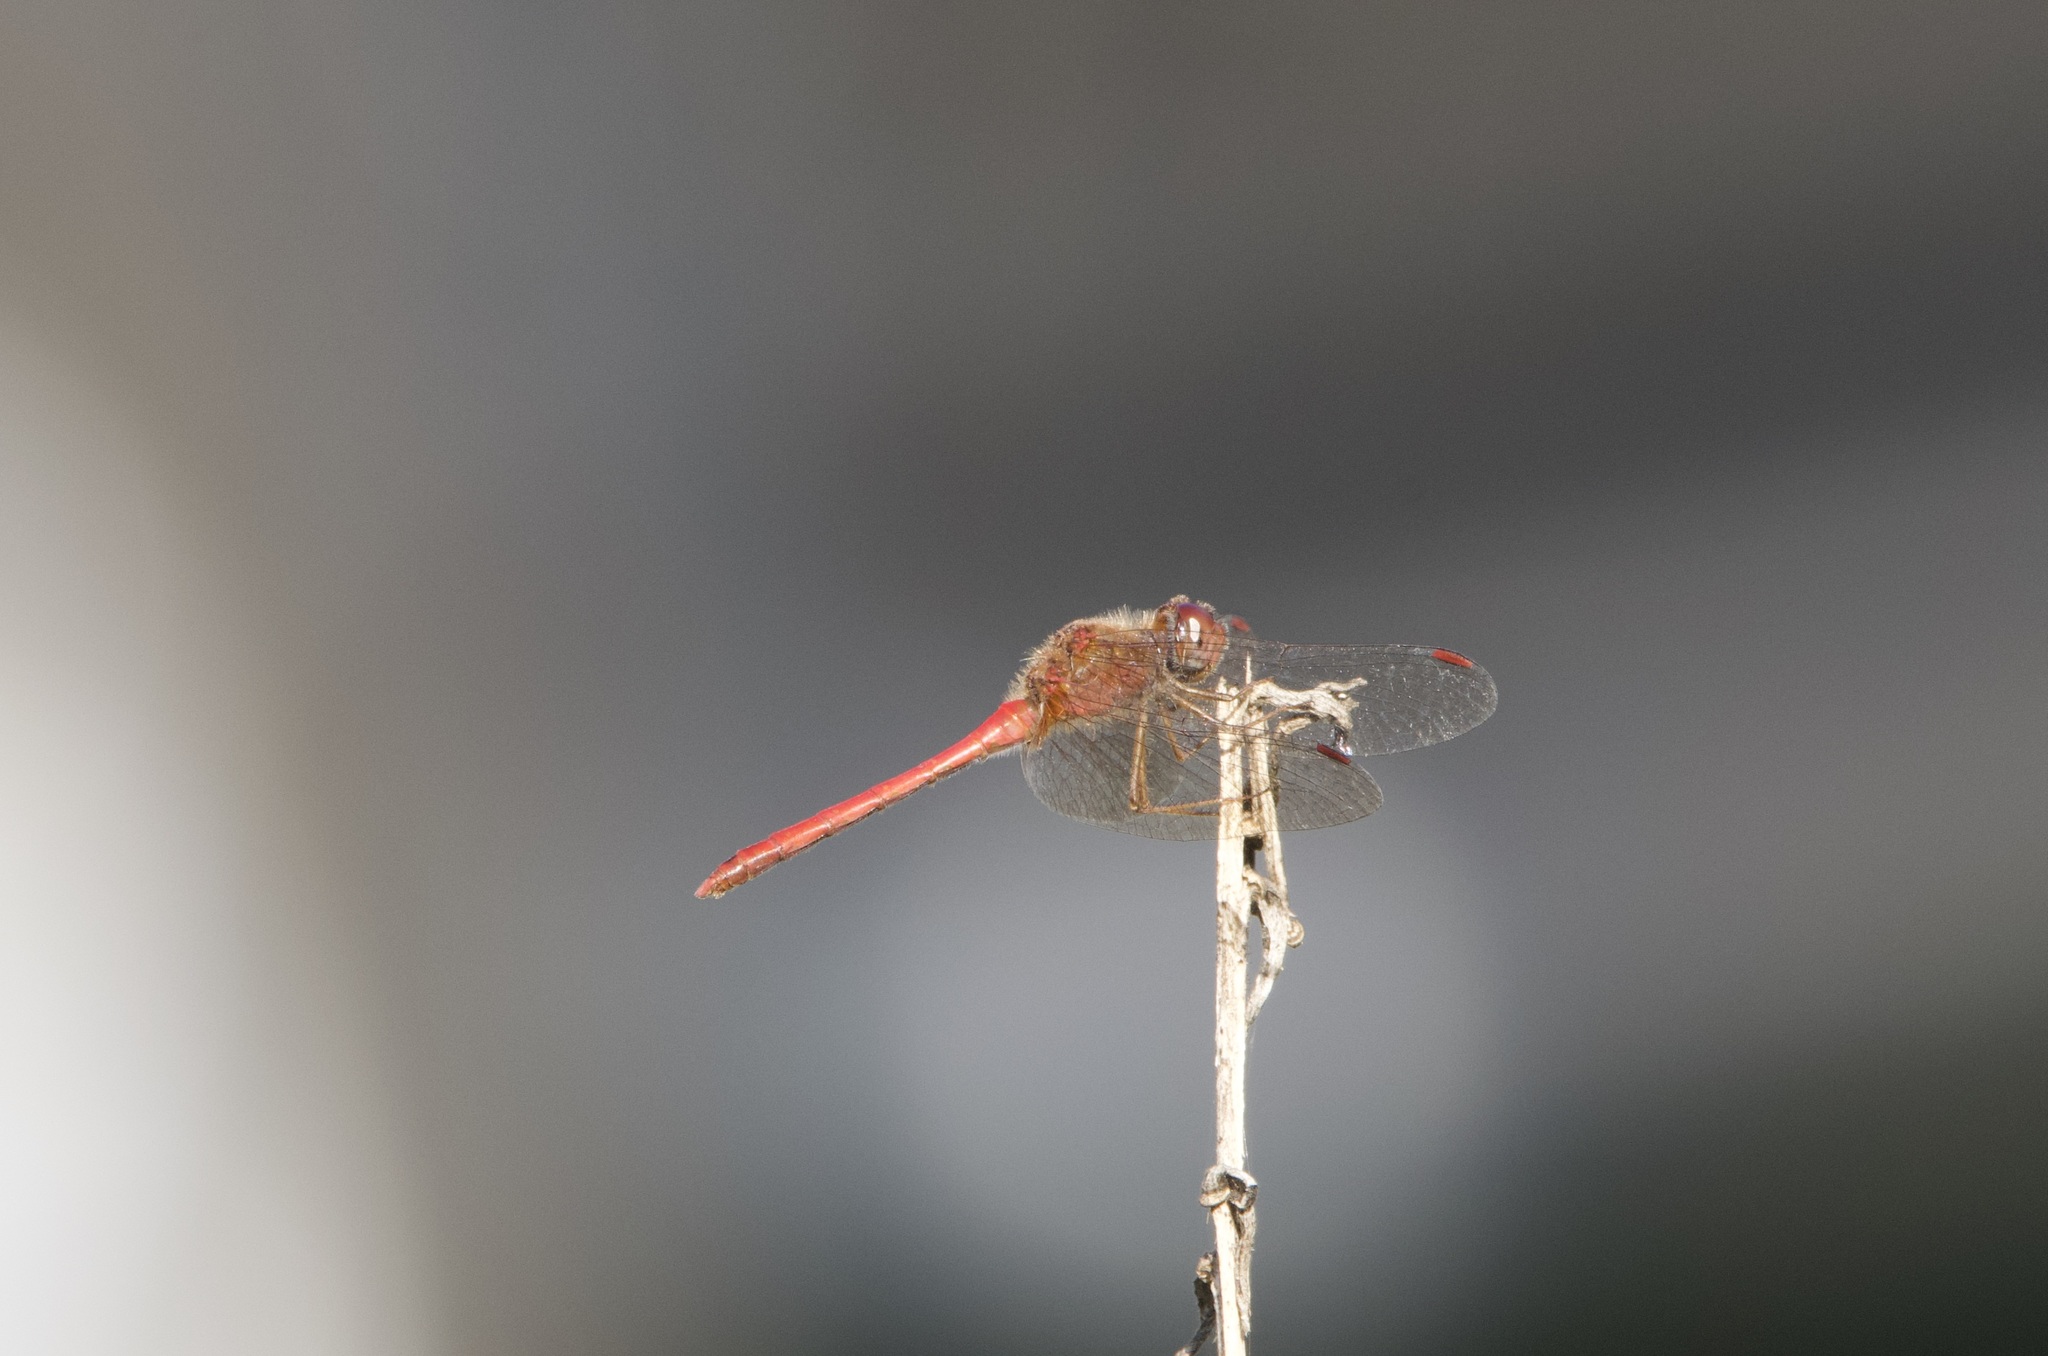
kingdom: Animalia
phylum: Arthropoda
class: Insecta
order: Odonata
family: Libellulidae
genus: Sympetrum
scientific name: Sympetrum vicinum
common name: Autumn meadowhawk
